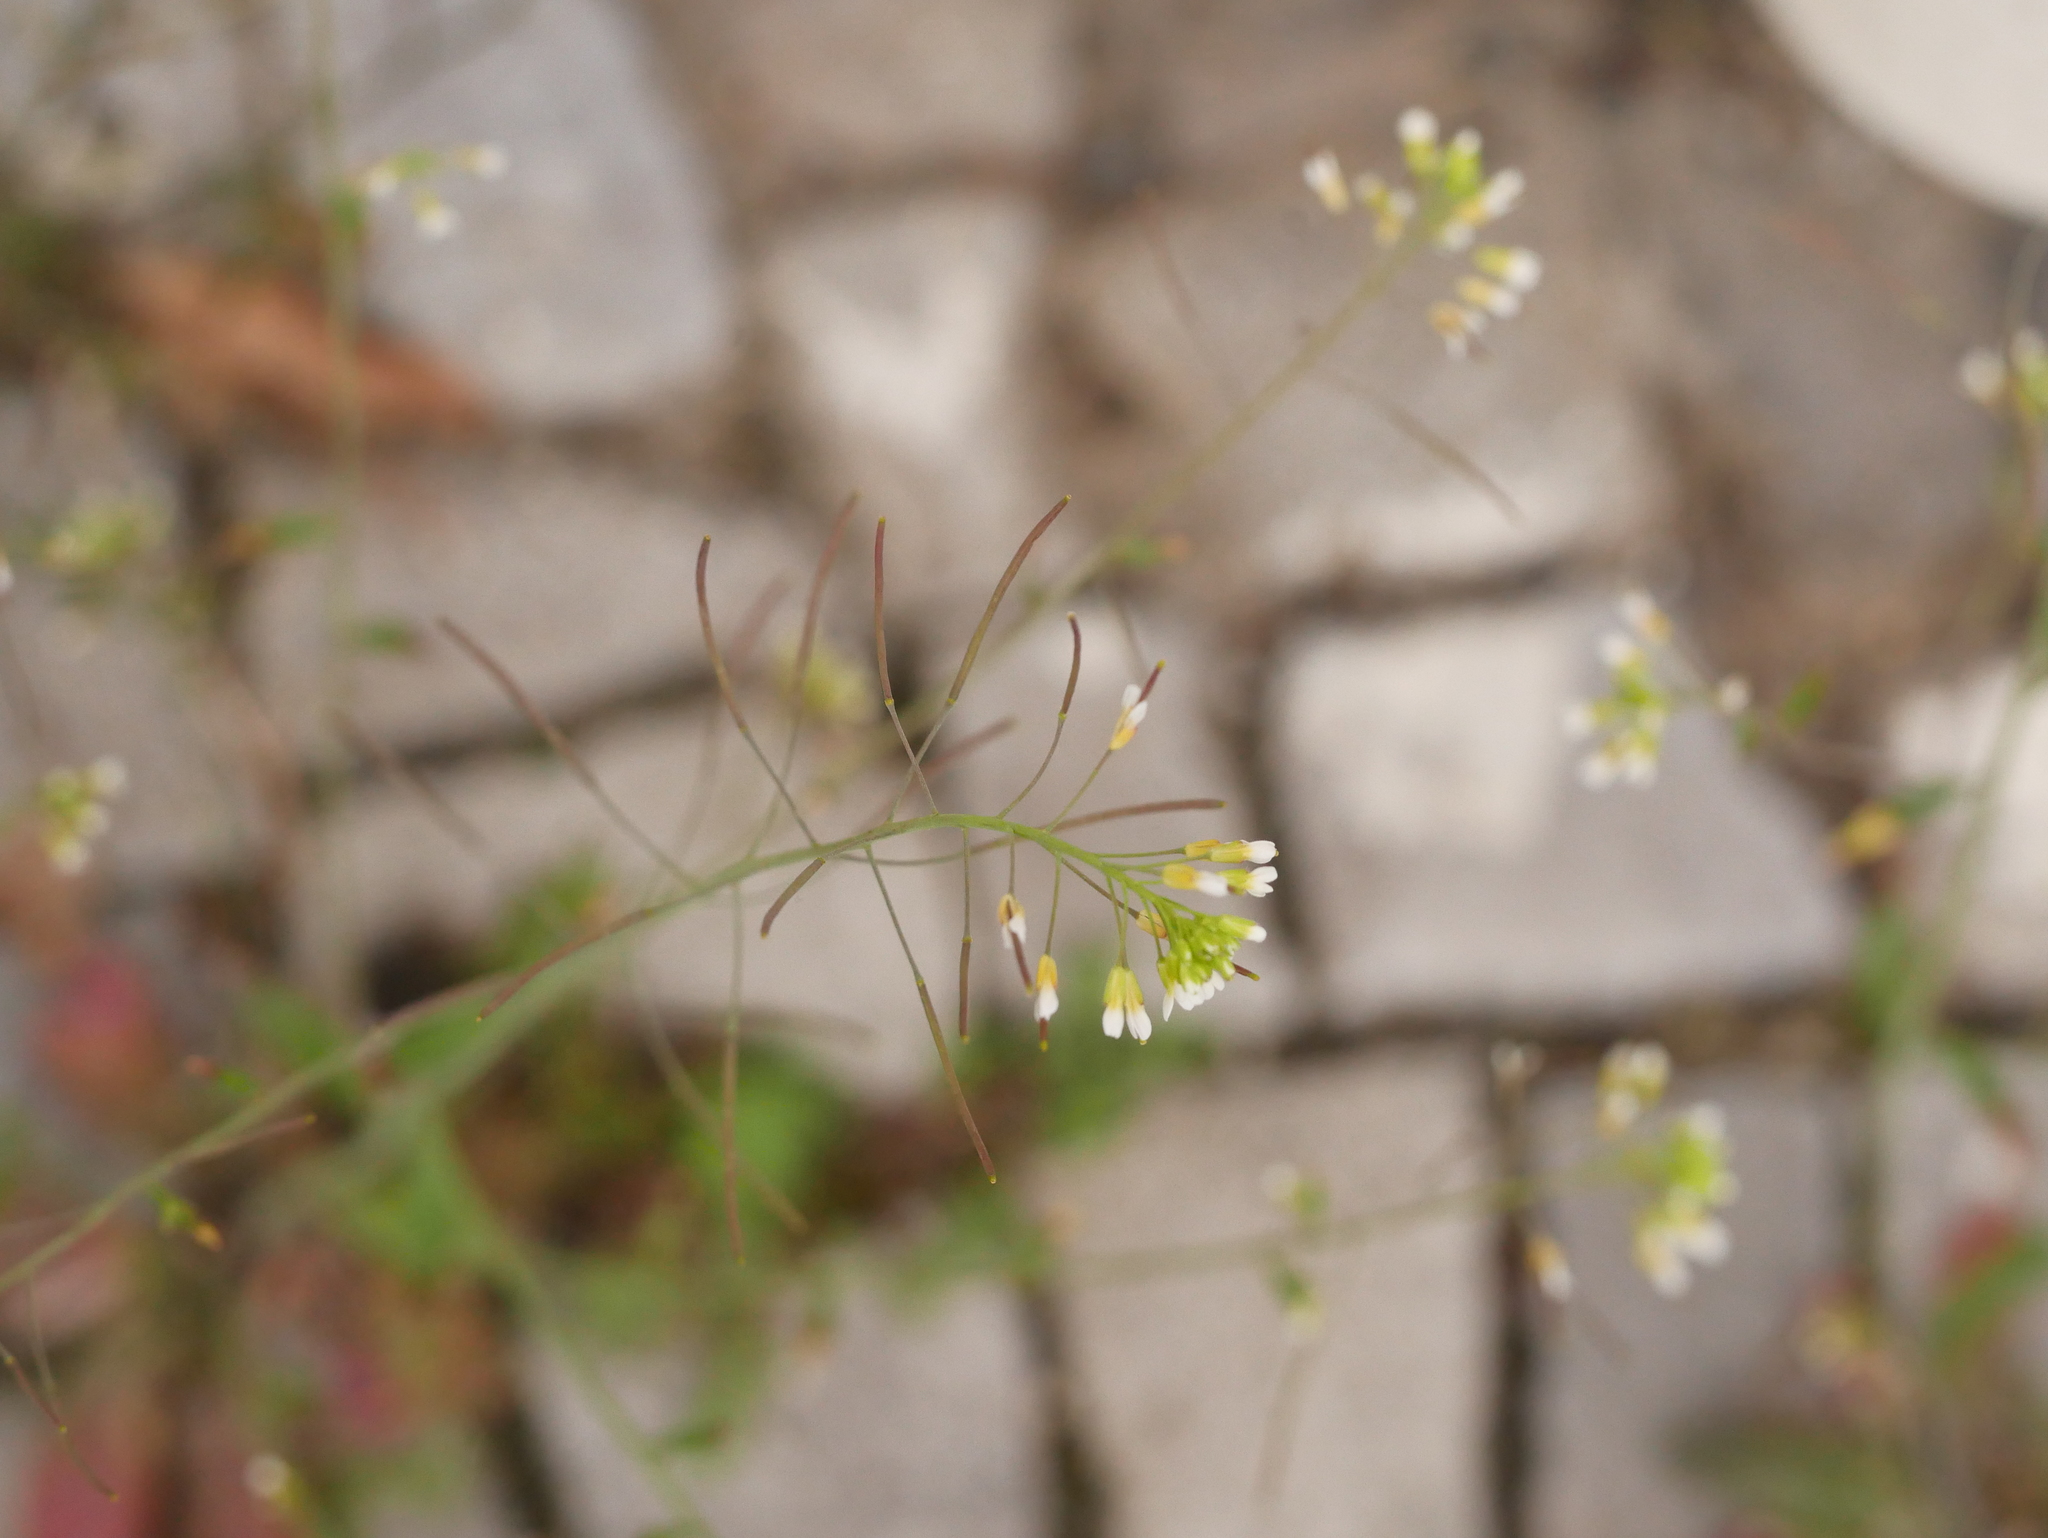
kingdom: Plantae
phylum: Tracheophyta
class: Magnoliopsida
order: Brassicales
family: Brassicaceae
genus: Arabidopsis
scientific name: Arabidopsis thaliana
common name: Thale cress
